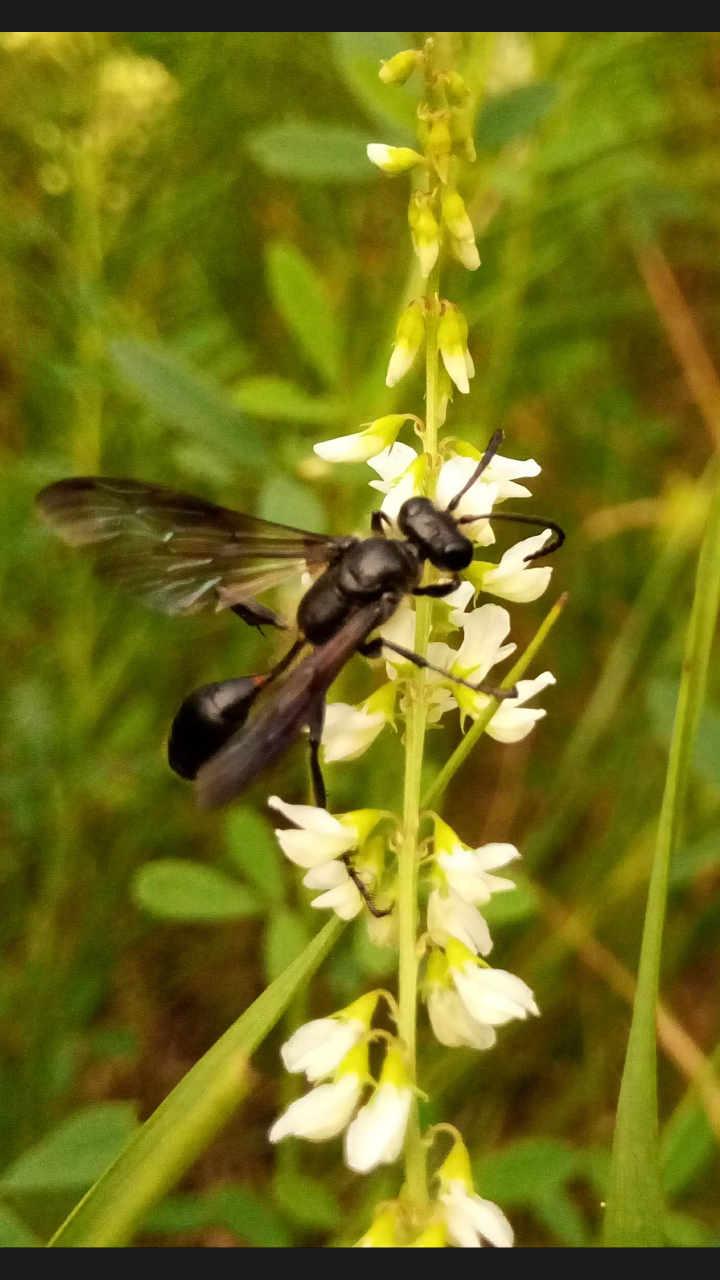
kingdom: Animalia
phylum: Arthropoda
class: Insecta
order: Hymenoptera
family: Sphecidae
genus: Isodontia
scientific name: Isodontia mexicana
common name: Mud dauber
